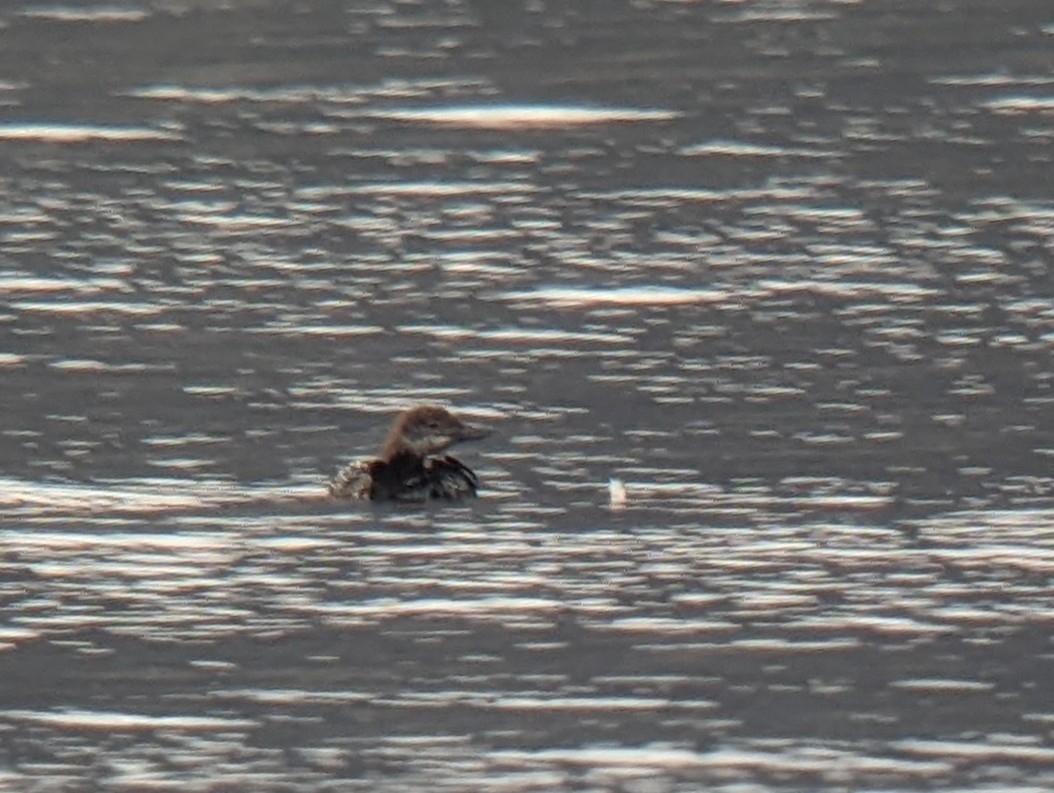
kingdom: Animalia
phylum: Chordata
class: Aves
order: Gaviiformes
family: Gaviidae
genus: Gavia
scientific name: Gavia immer
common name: Common loon
